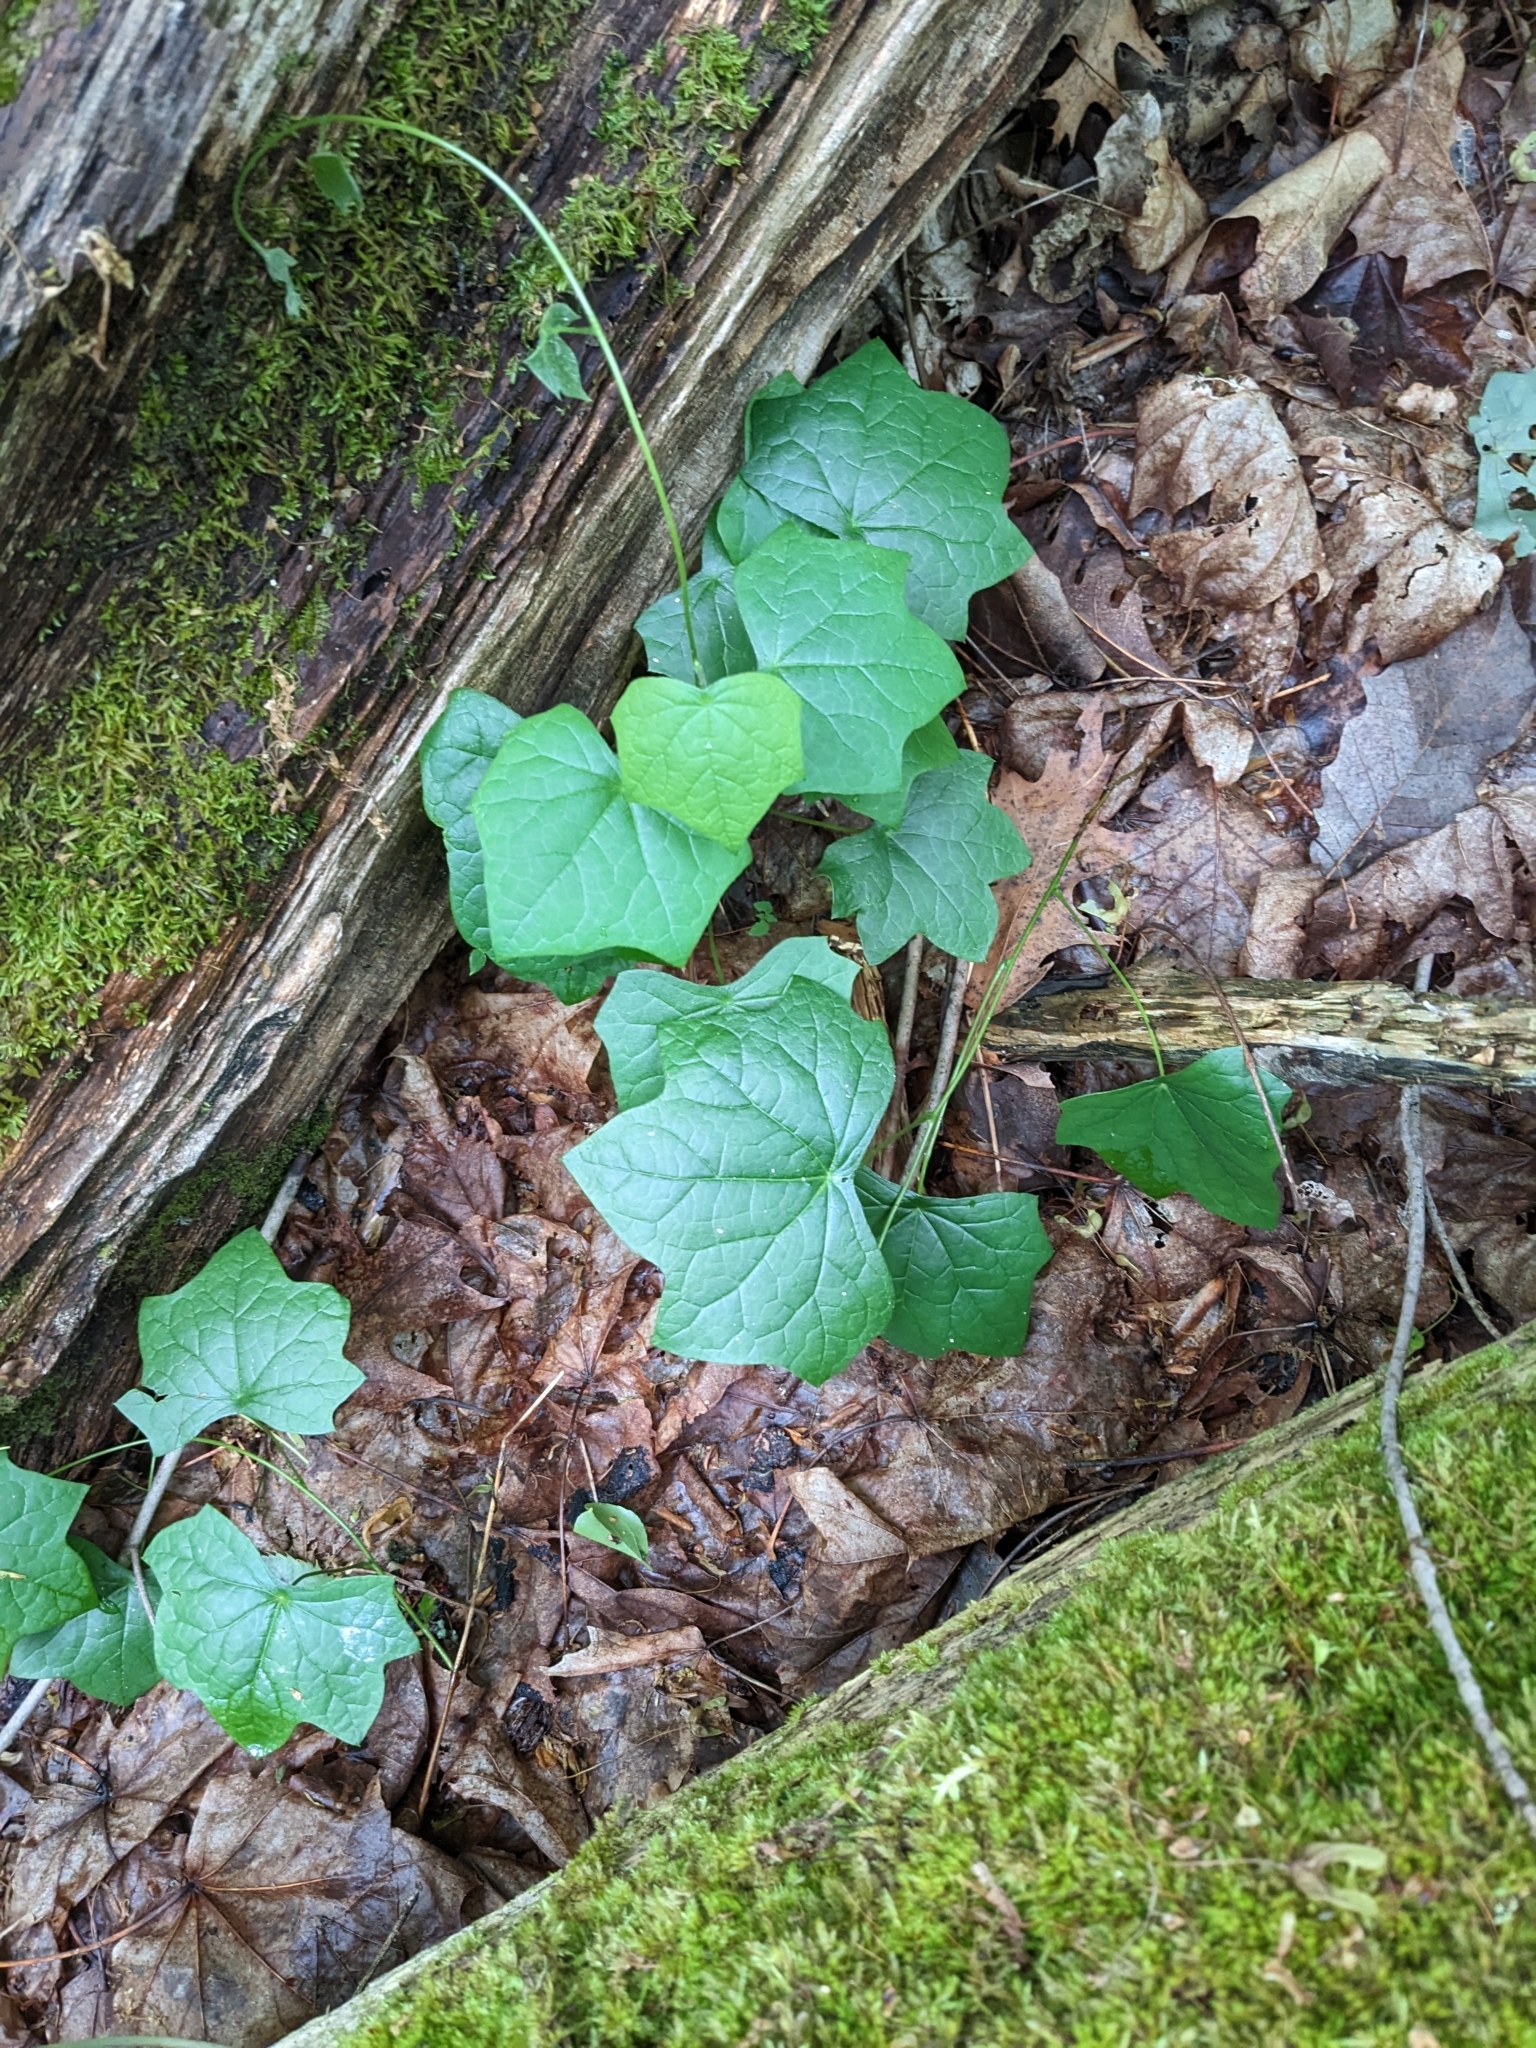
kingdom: Plantae
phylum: Tracheophyta
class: Magnoliopsida
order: Ranunculales
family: Menispermaceae
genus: Menispermum
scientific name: Menispermum canadense
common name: Moonseed
